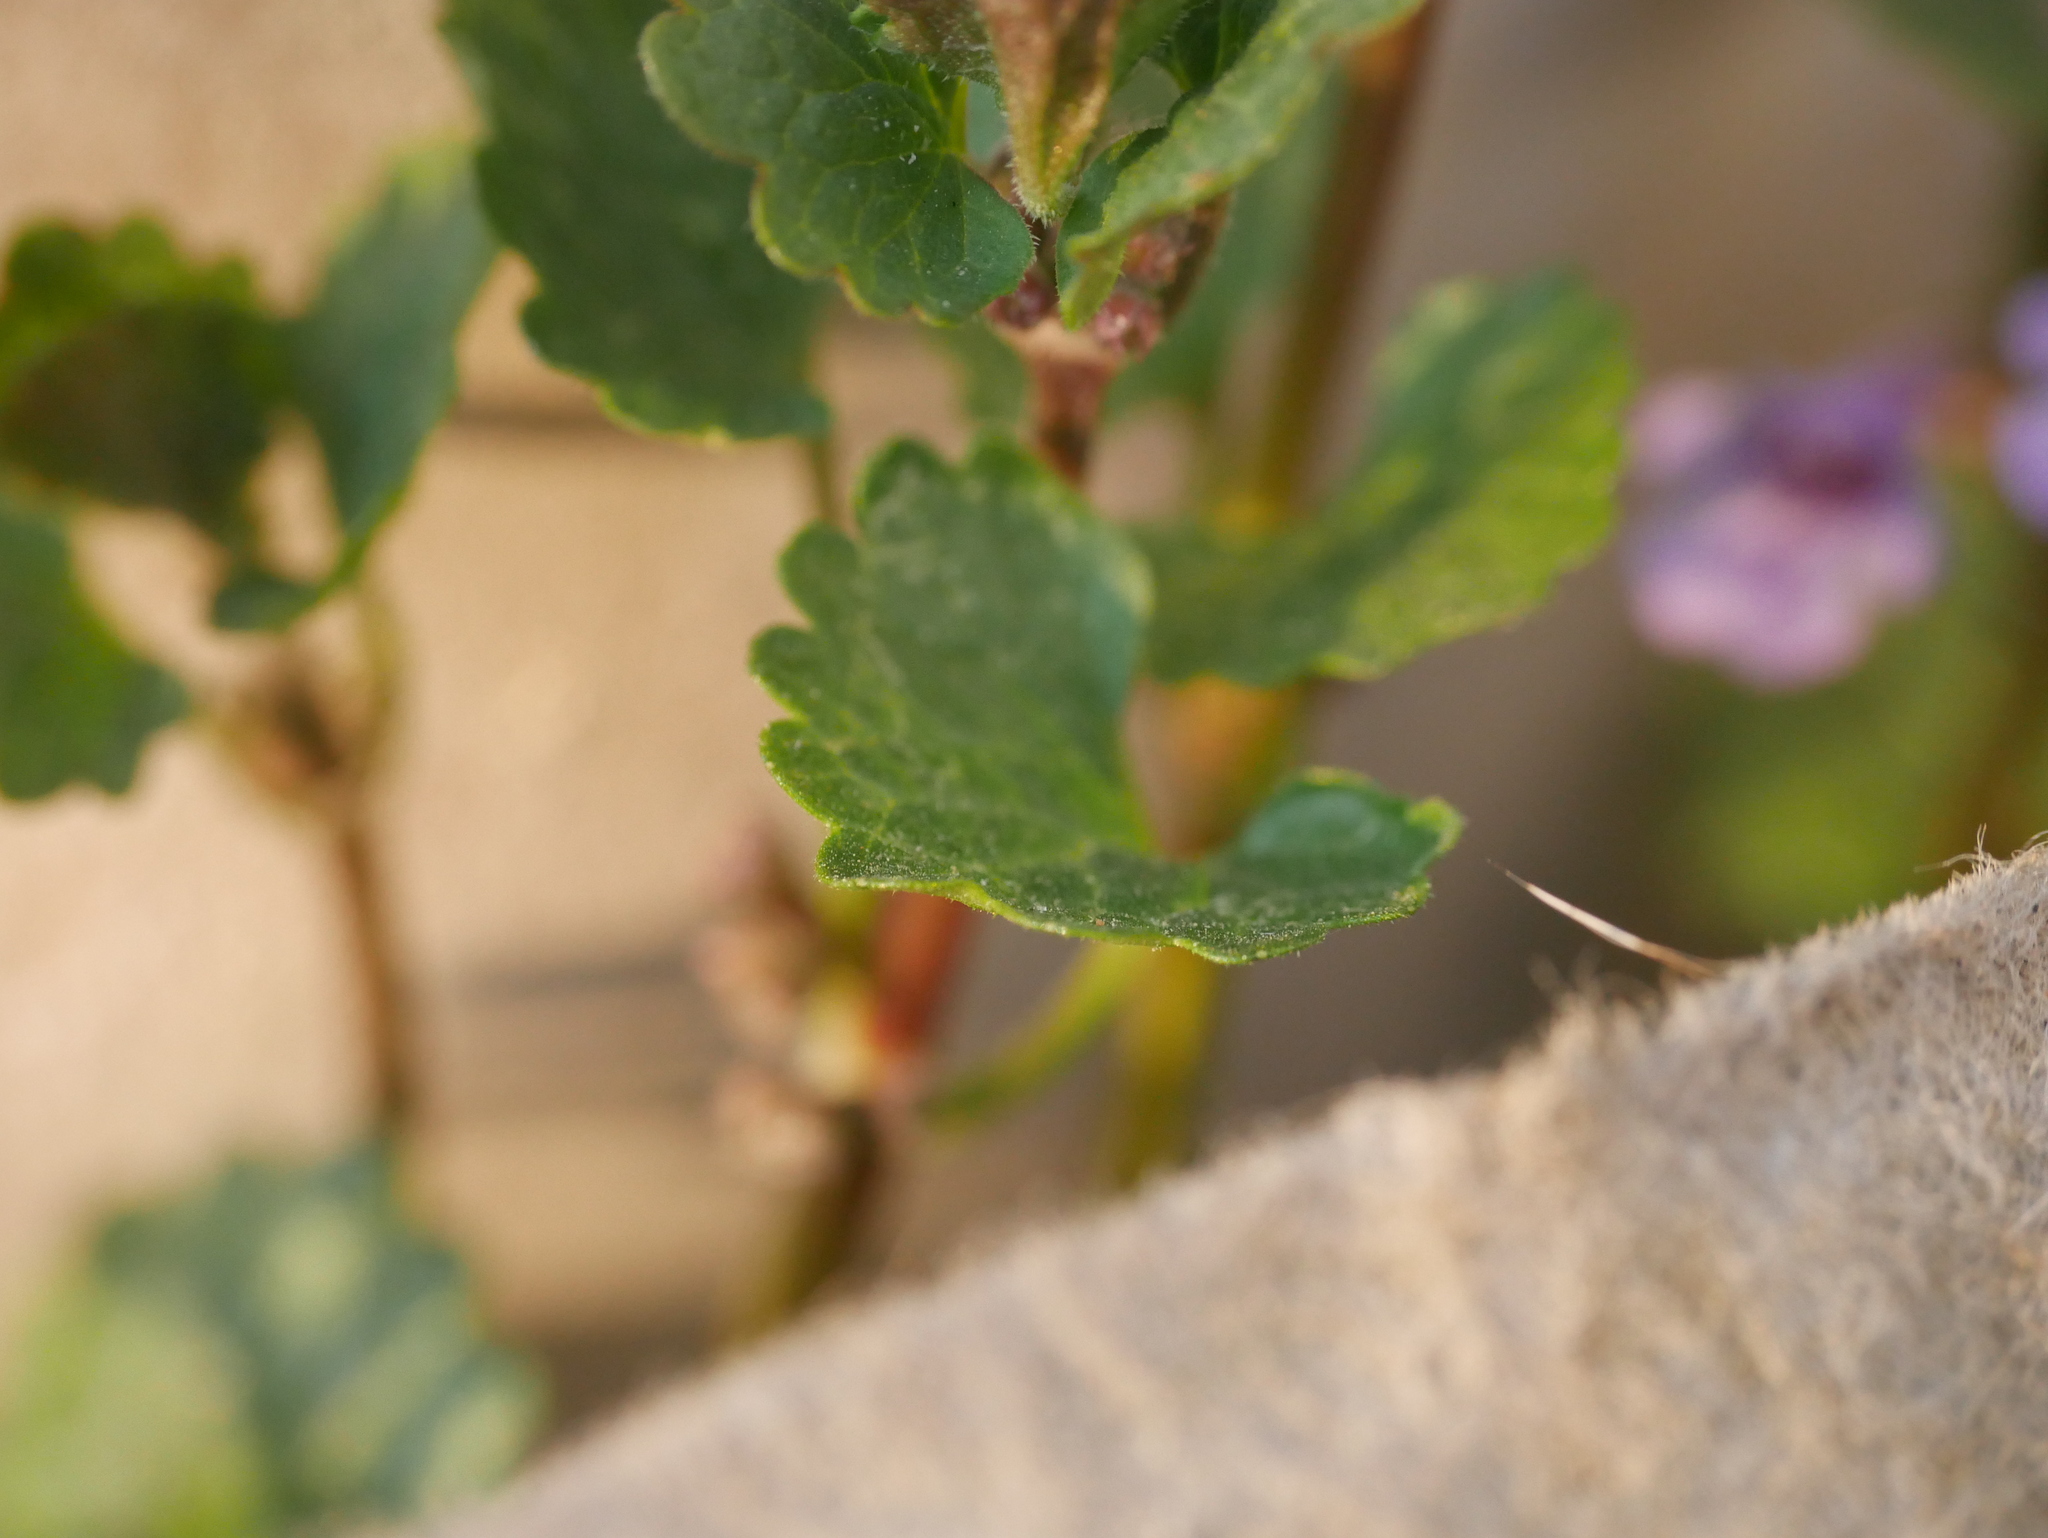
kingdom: Plantae
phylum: Tracheophyta
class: Magnoliopsida
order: Lamiales
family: Lamiaceae
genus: Glechoma
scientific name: Glechoma hederacea
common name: Ground ivy
